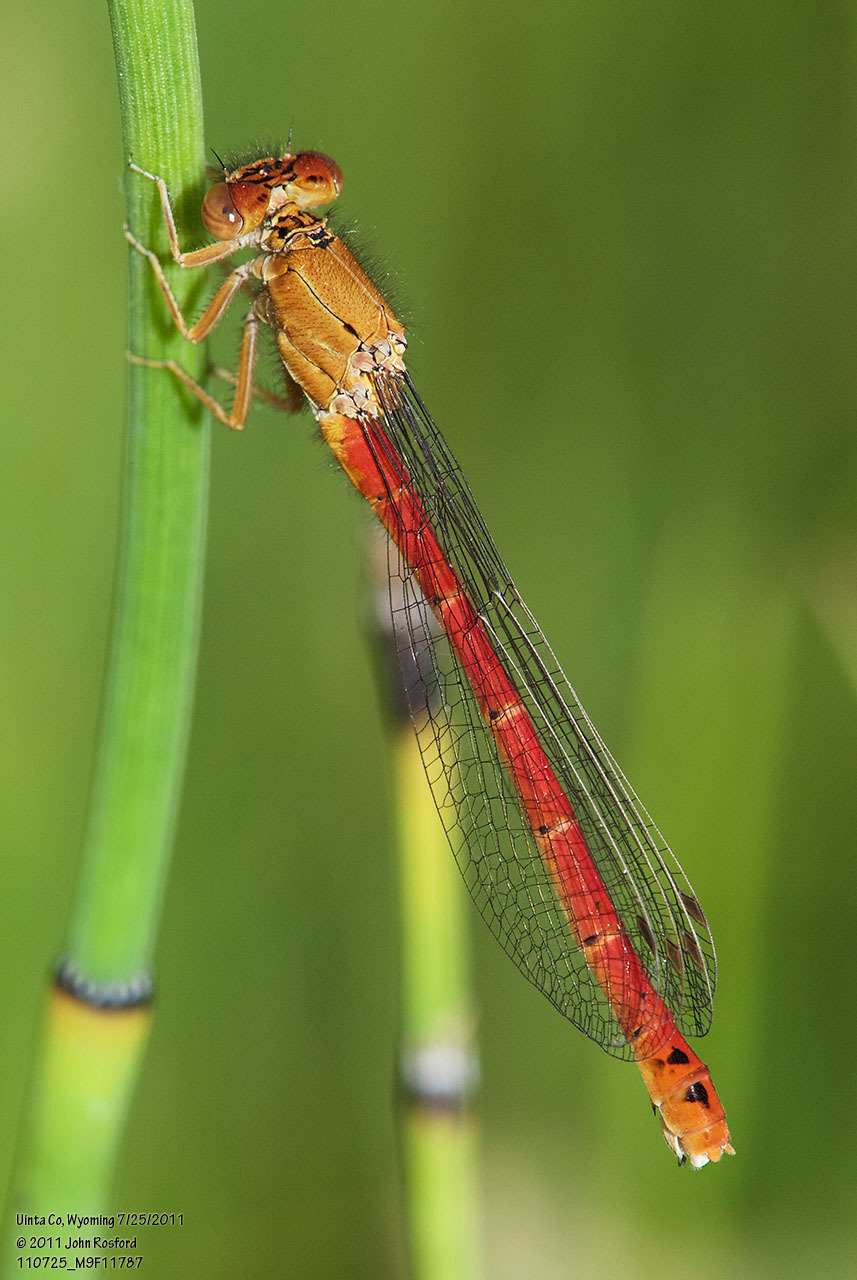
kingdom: Animalia
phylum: Arthropoda
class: Insecta
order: Odonata
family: Coenagrionidae
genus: Amphiagrion
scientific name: Amphiagrion abbreviatum
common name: Western red damsel
